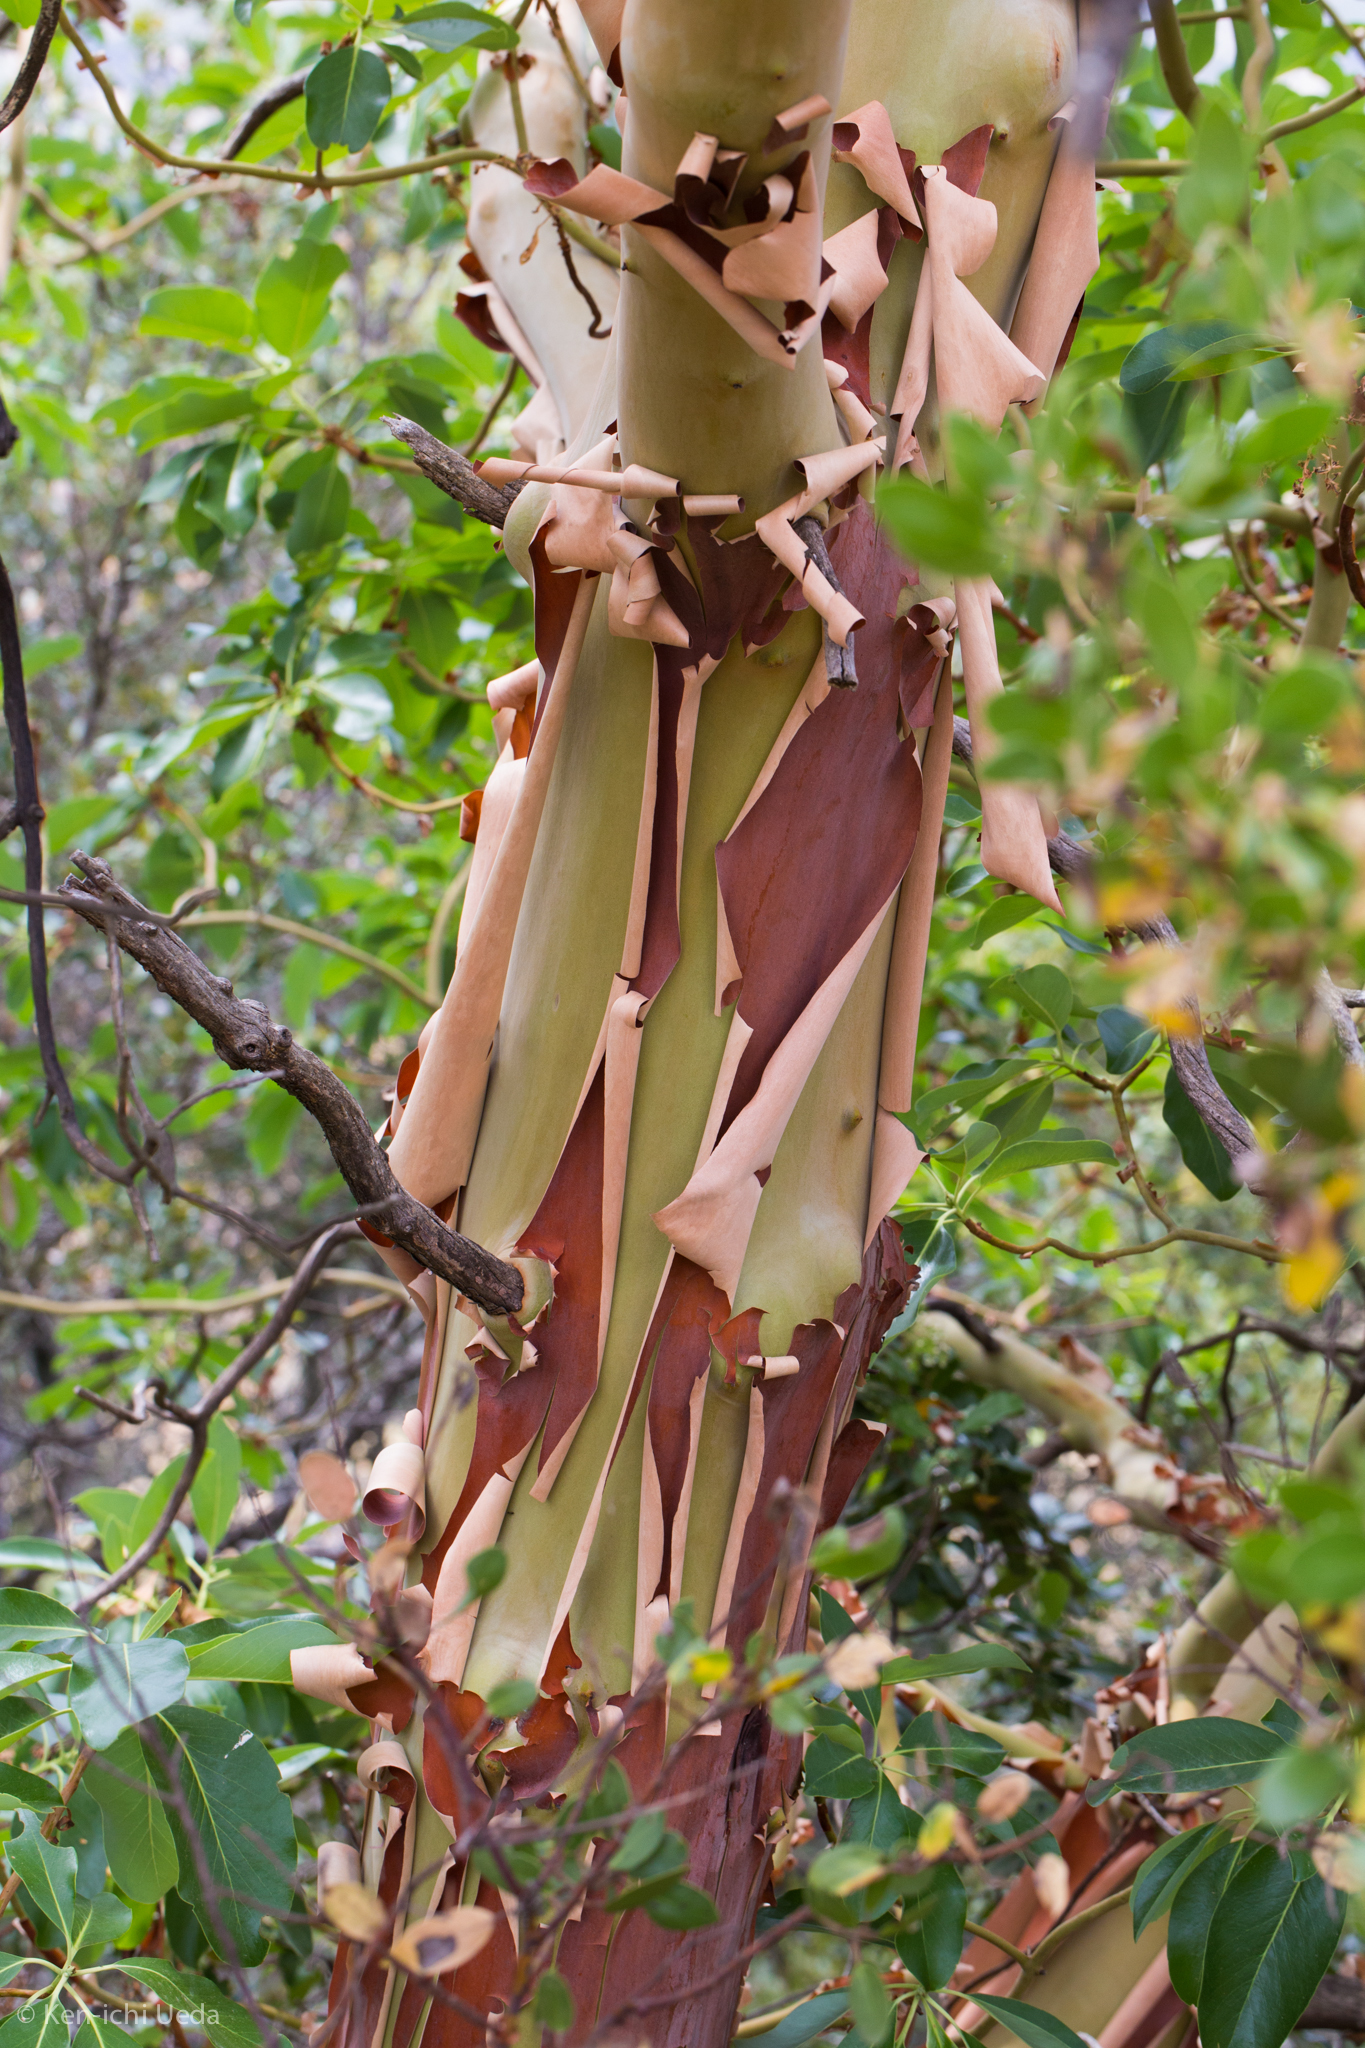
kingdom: Plantae
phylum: Tracheophyta
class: Magnoliopsida
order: Ericales
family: Ericaceae
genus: Arbutus
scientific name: Arbutus menziesii
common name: Pacific madrone
